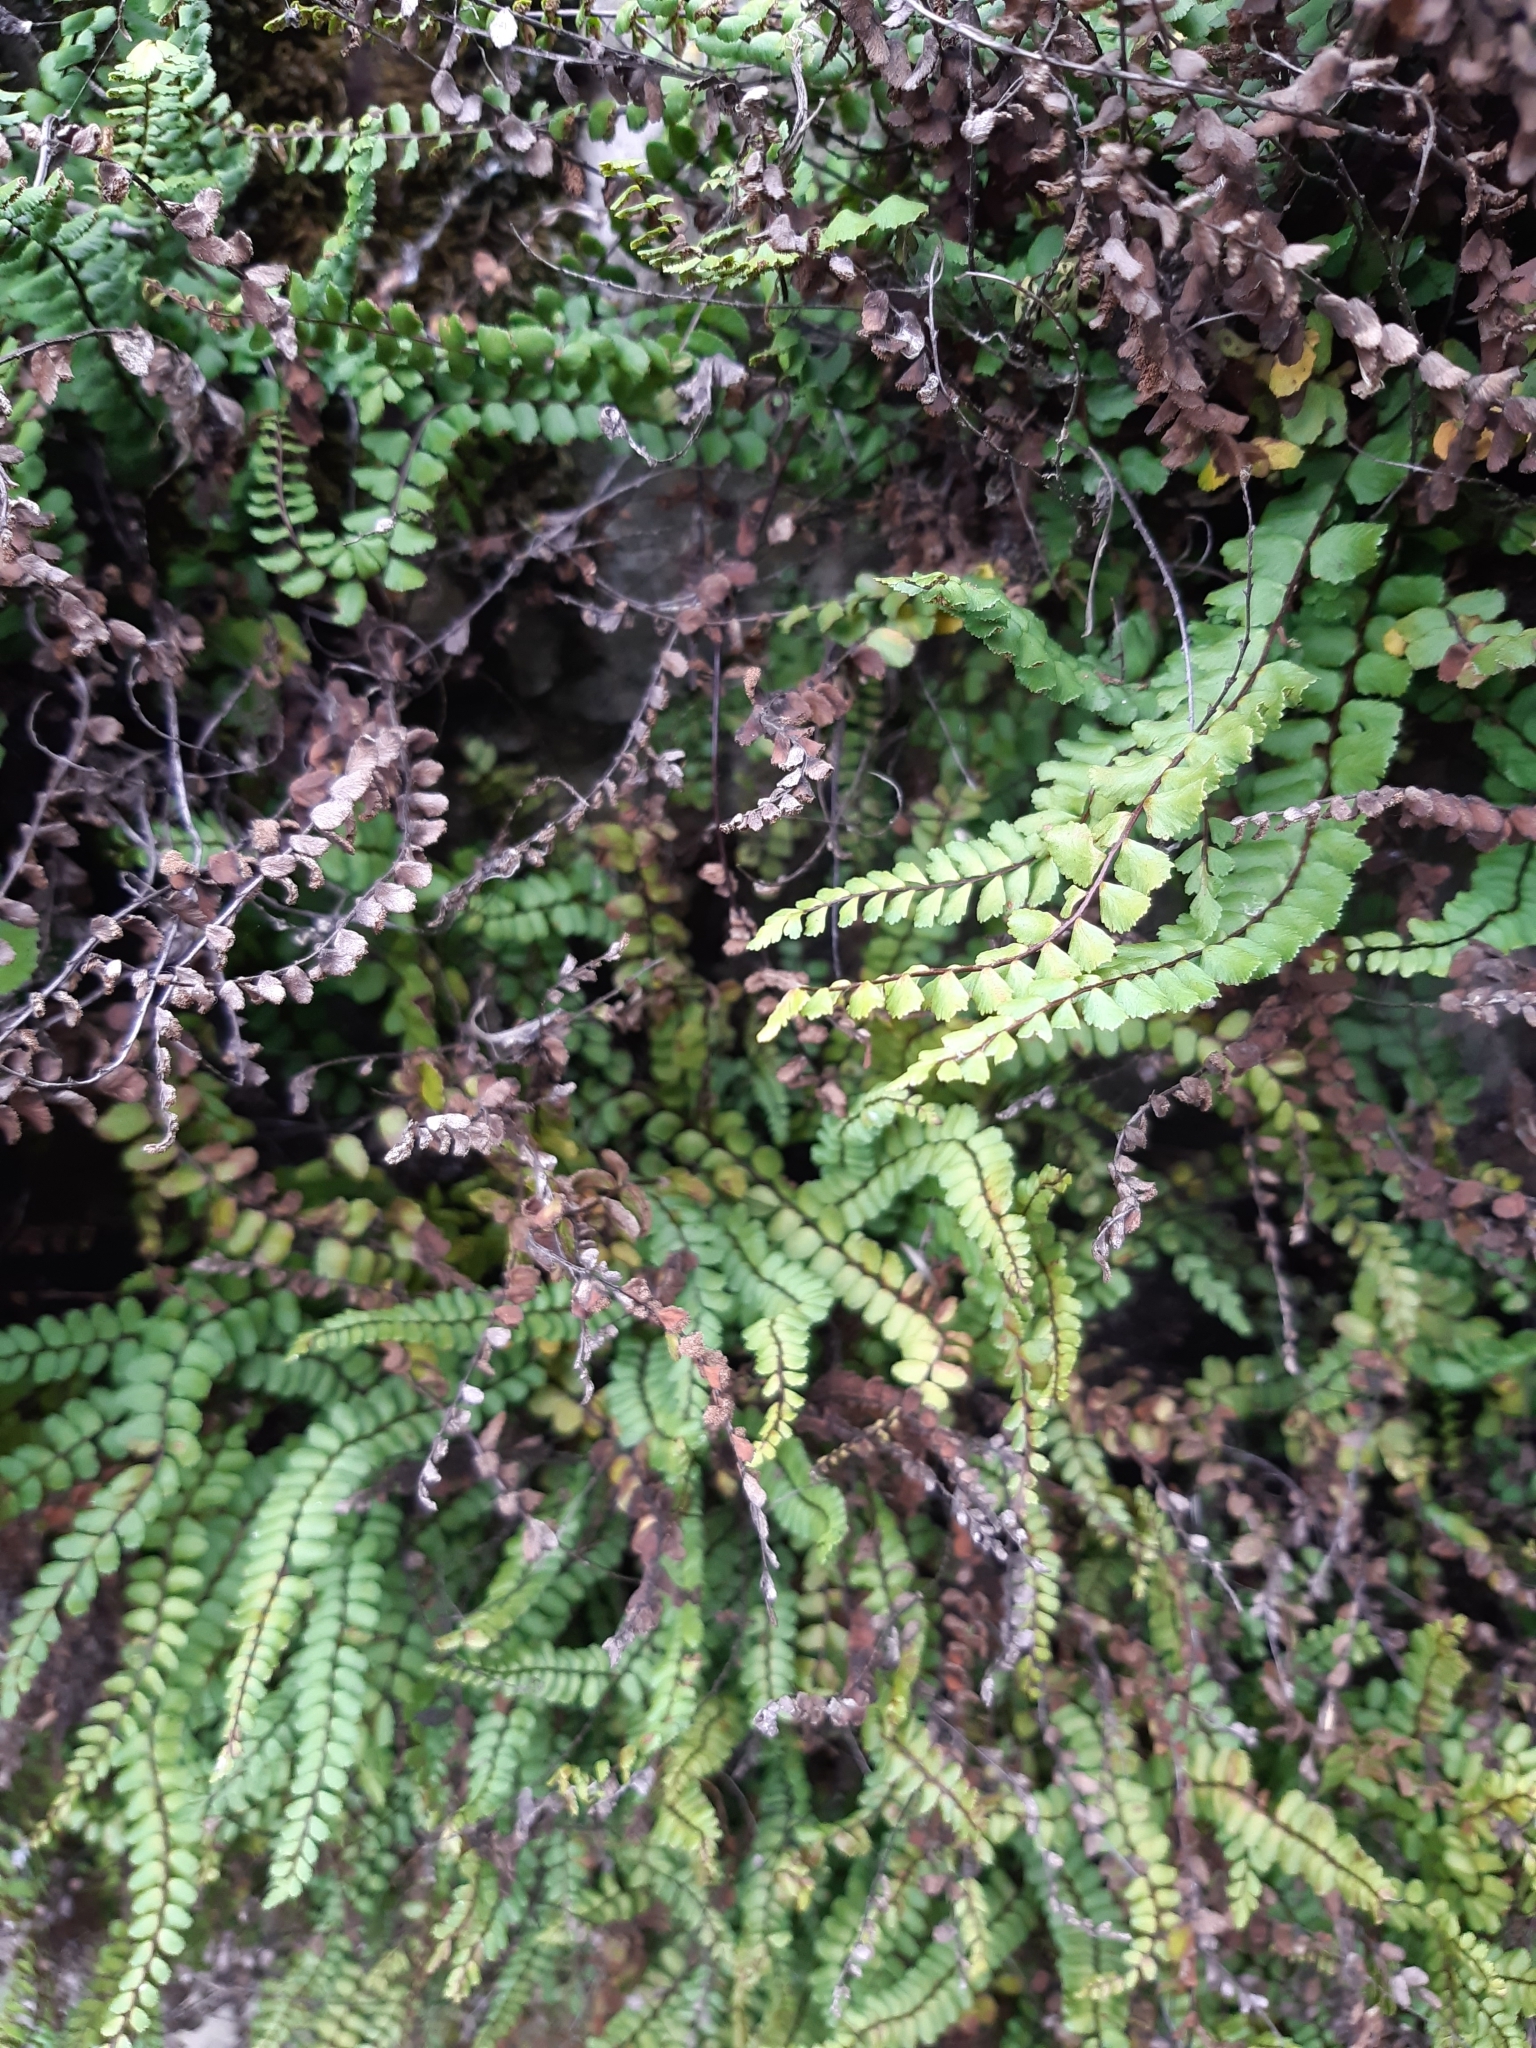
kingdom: Plantae
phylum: Tracheophyta
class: Polypodiopsida
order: Polypodiales
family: Aspleniaceae
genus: Asplenium
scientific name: Asplenium trichomanes
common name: Maidenhair spleenwort
